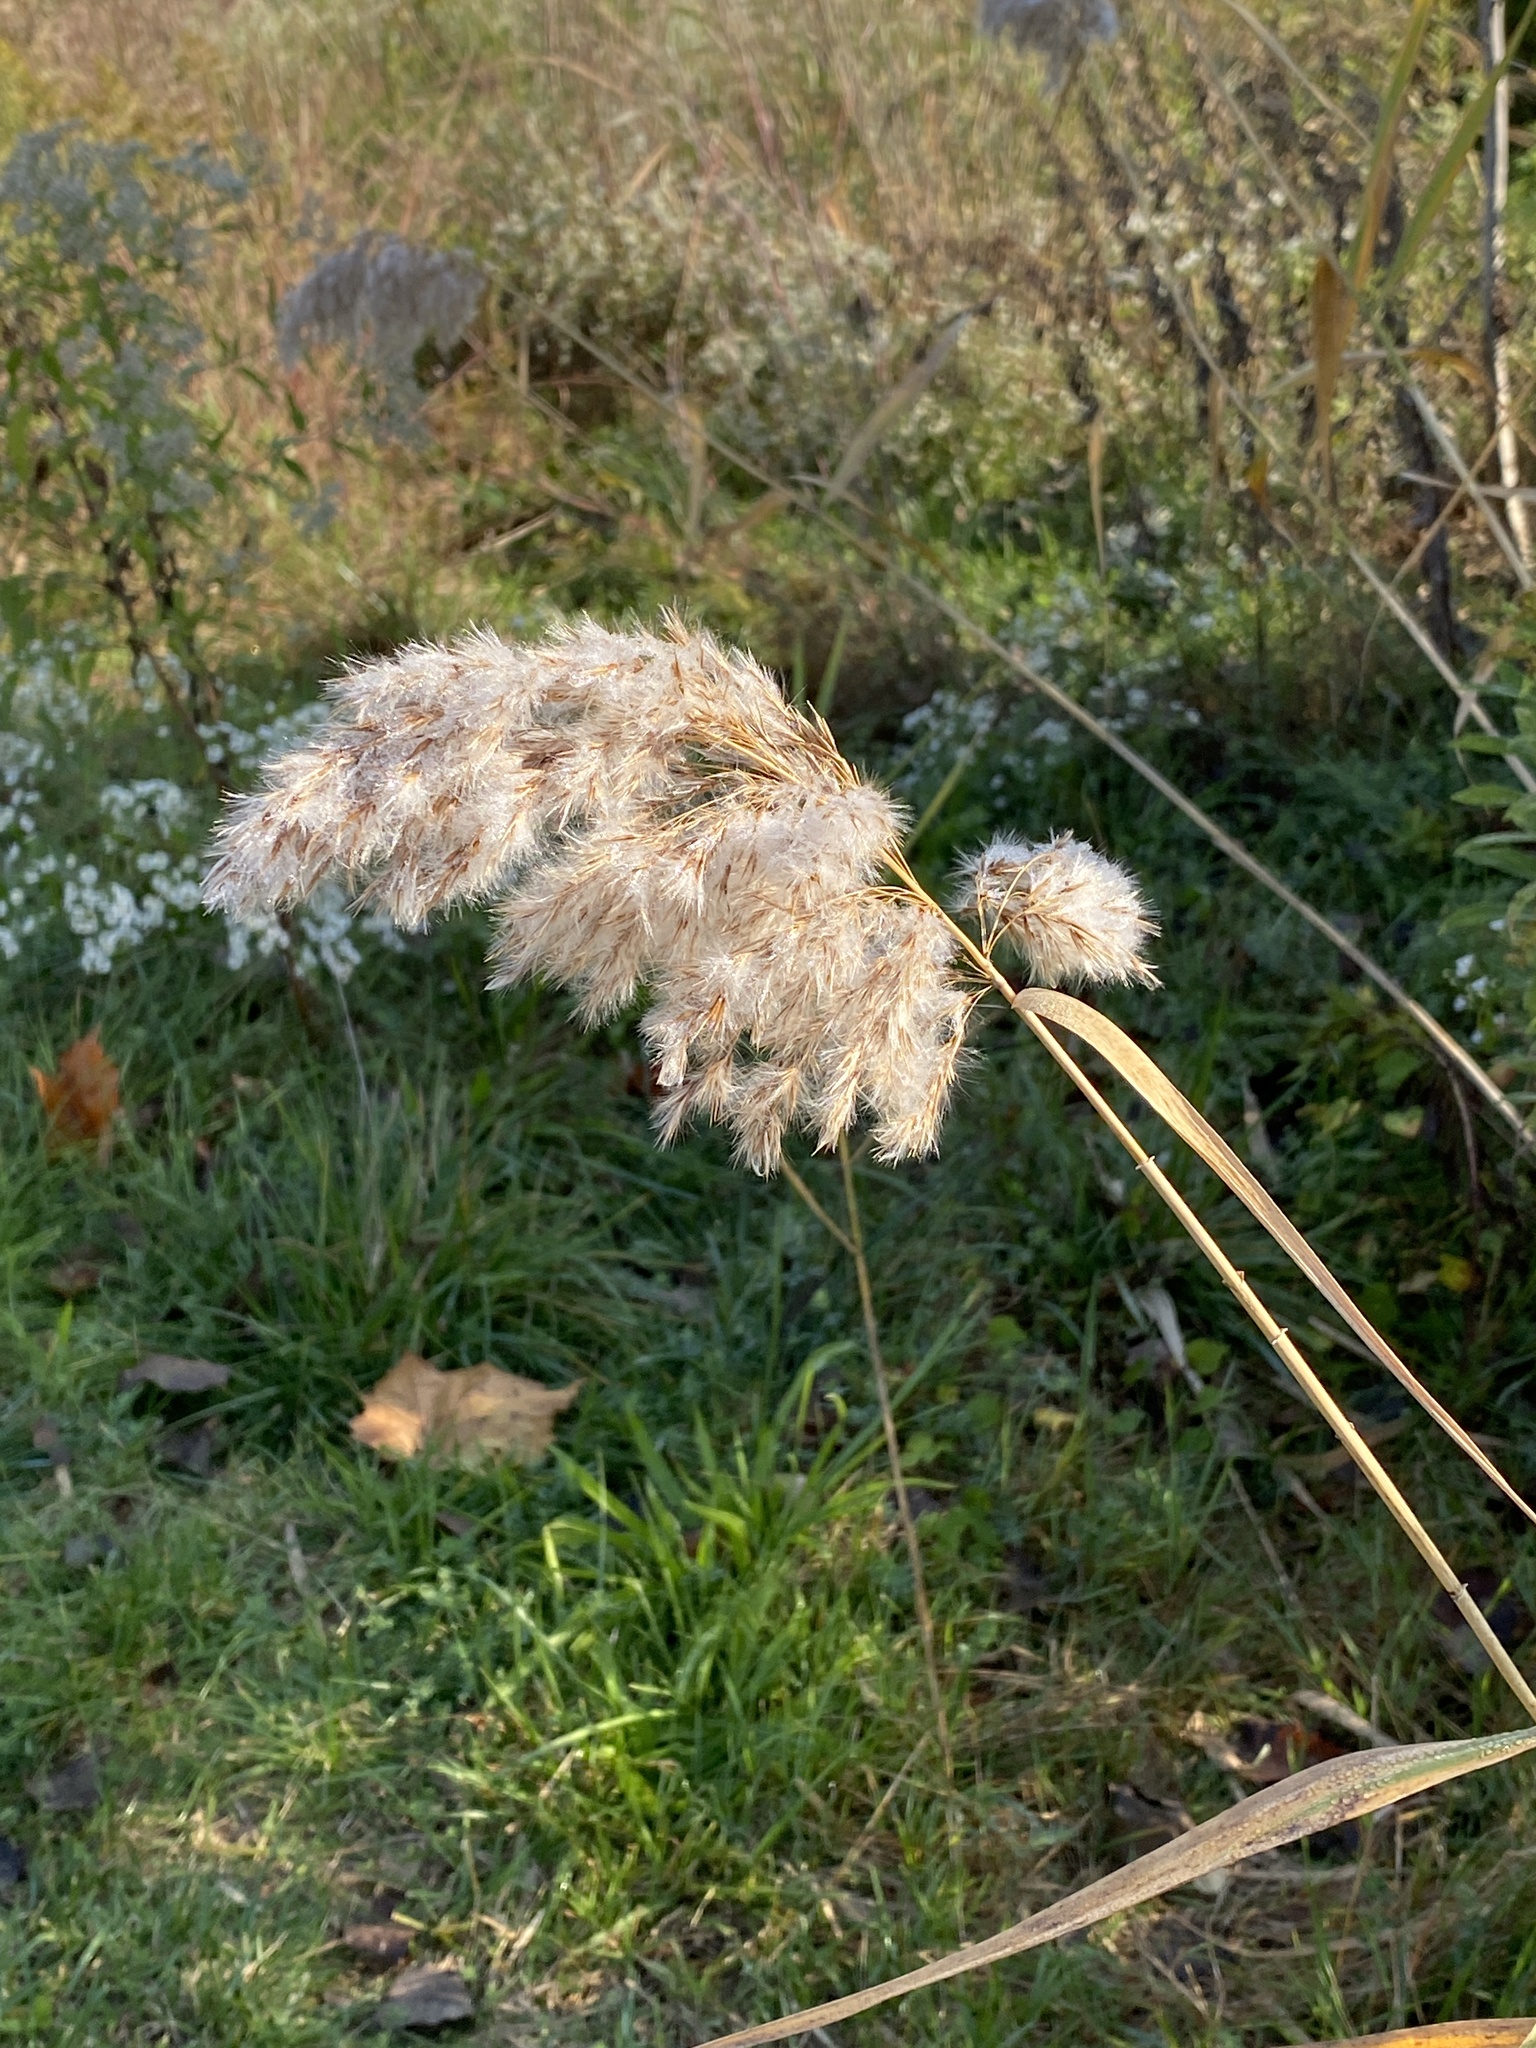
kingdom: Plantae
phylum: Tracheophyta
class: Liliopsida
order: Poales
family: Poaceae
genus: Phragmites
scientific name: Phragmites australis
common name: Common reed
